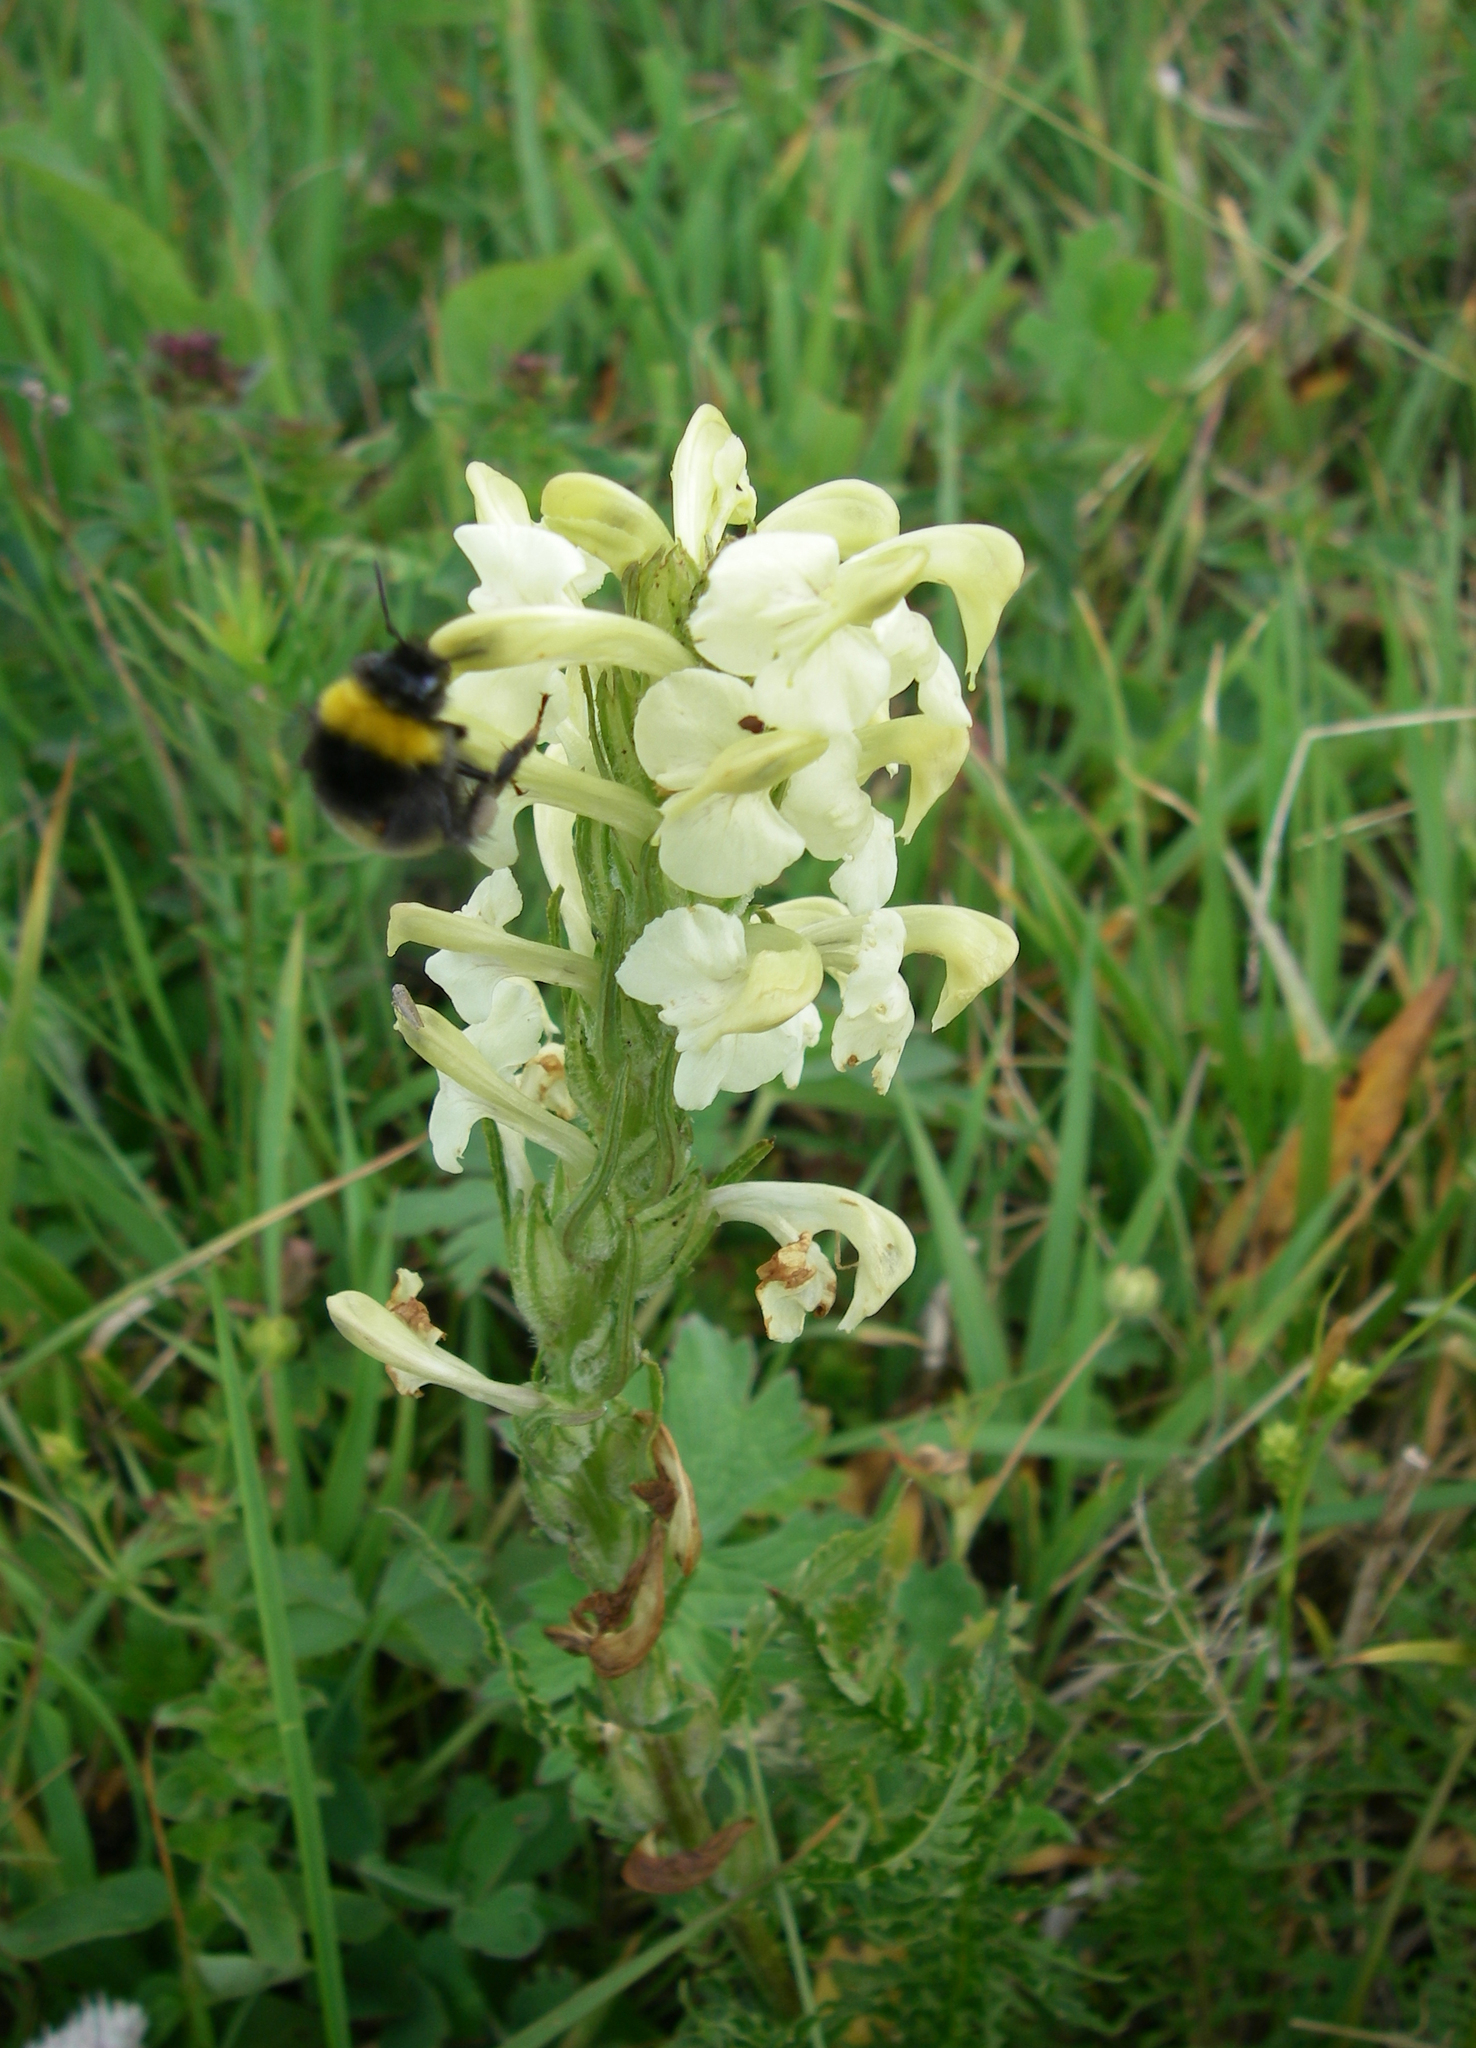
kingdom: Animalia
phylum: Arthropoda
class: Insecta
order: Hymenoptera
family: Apidae
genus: Bombus
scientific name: Bombus
